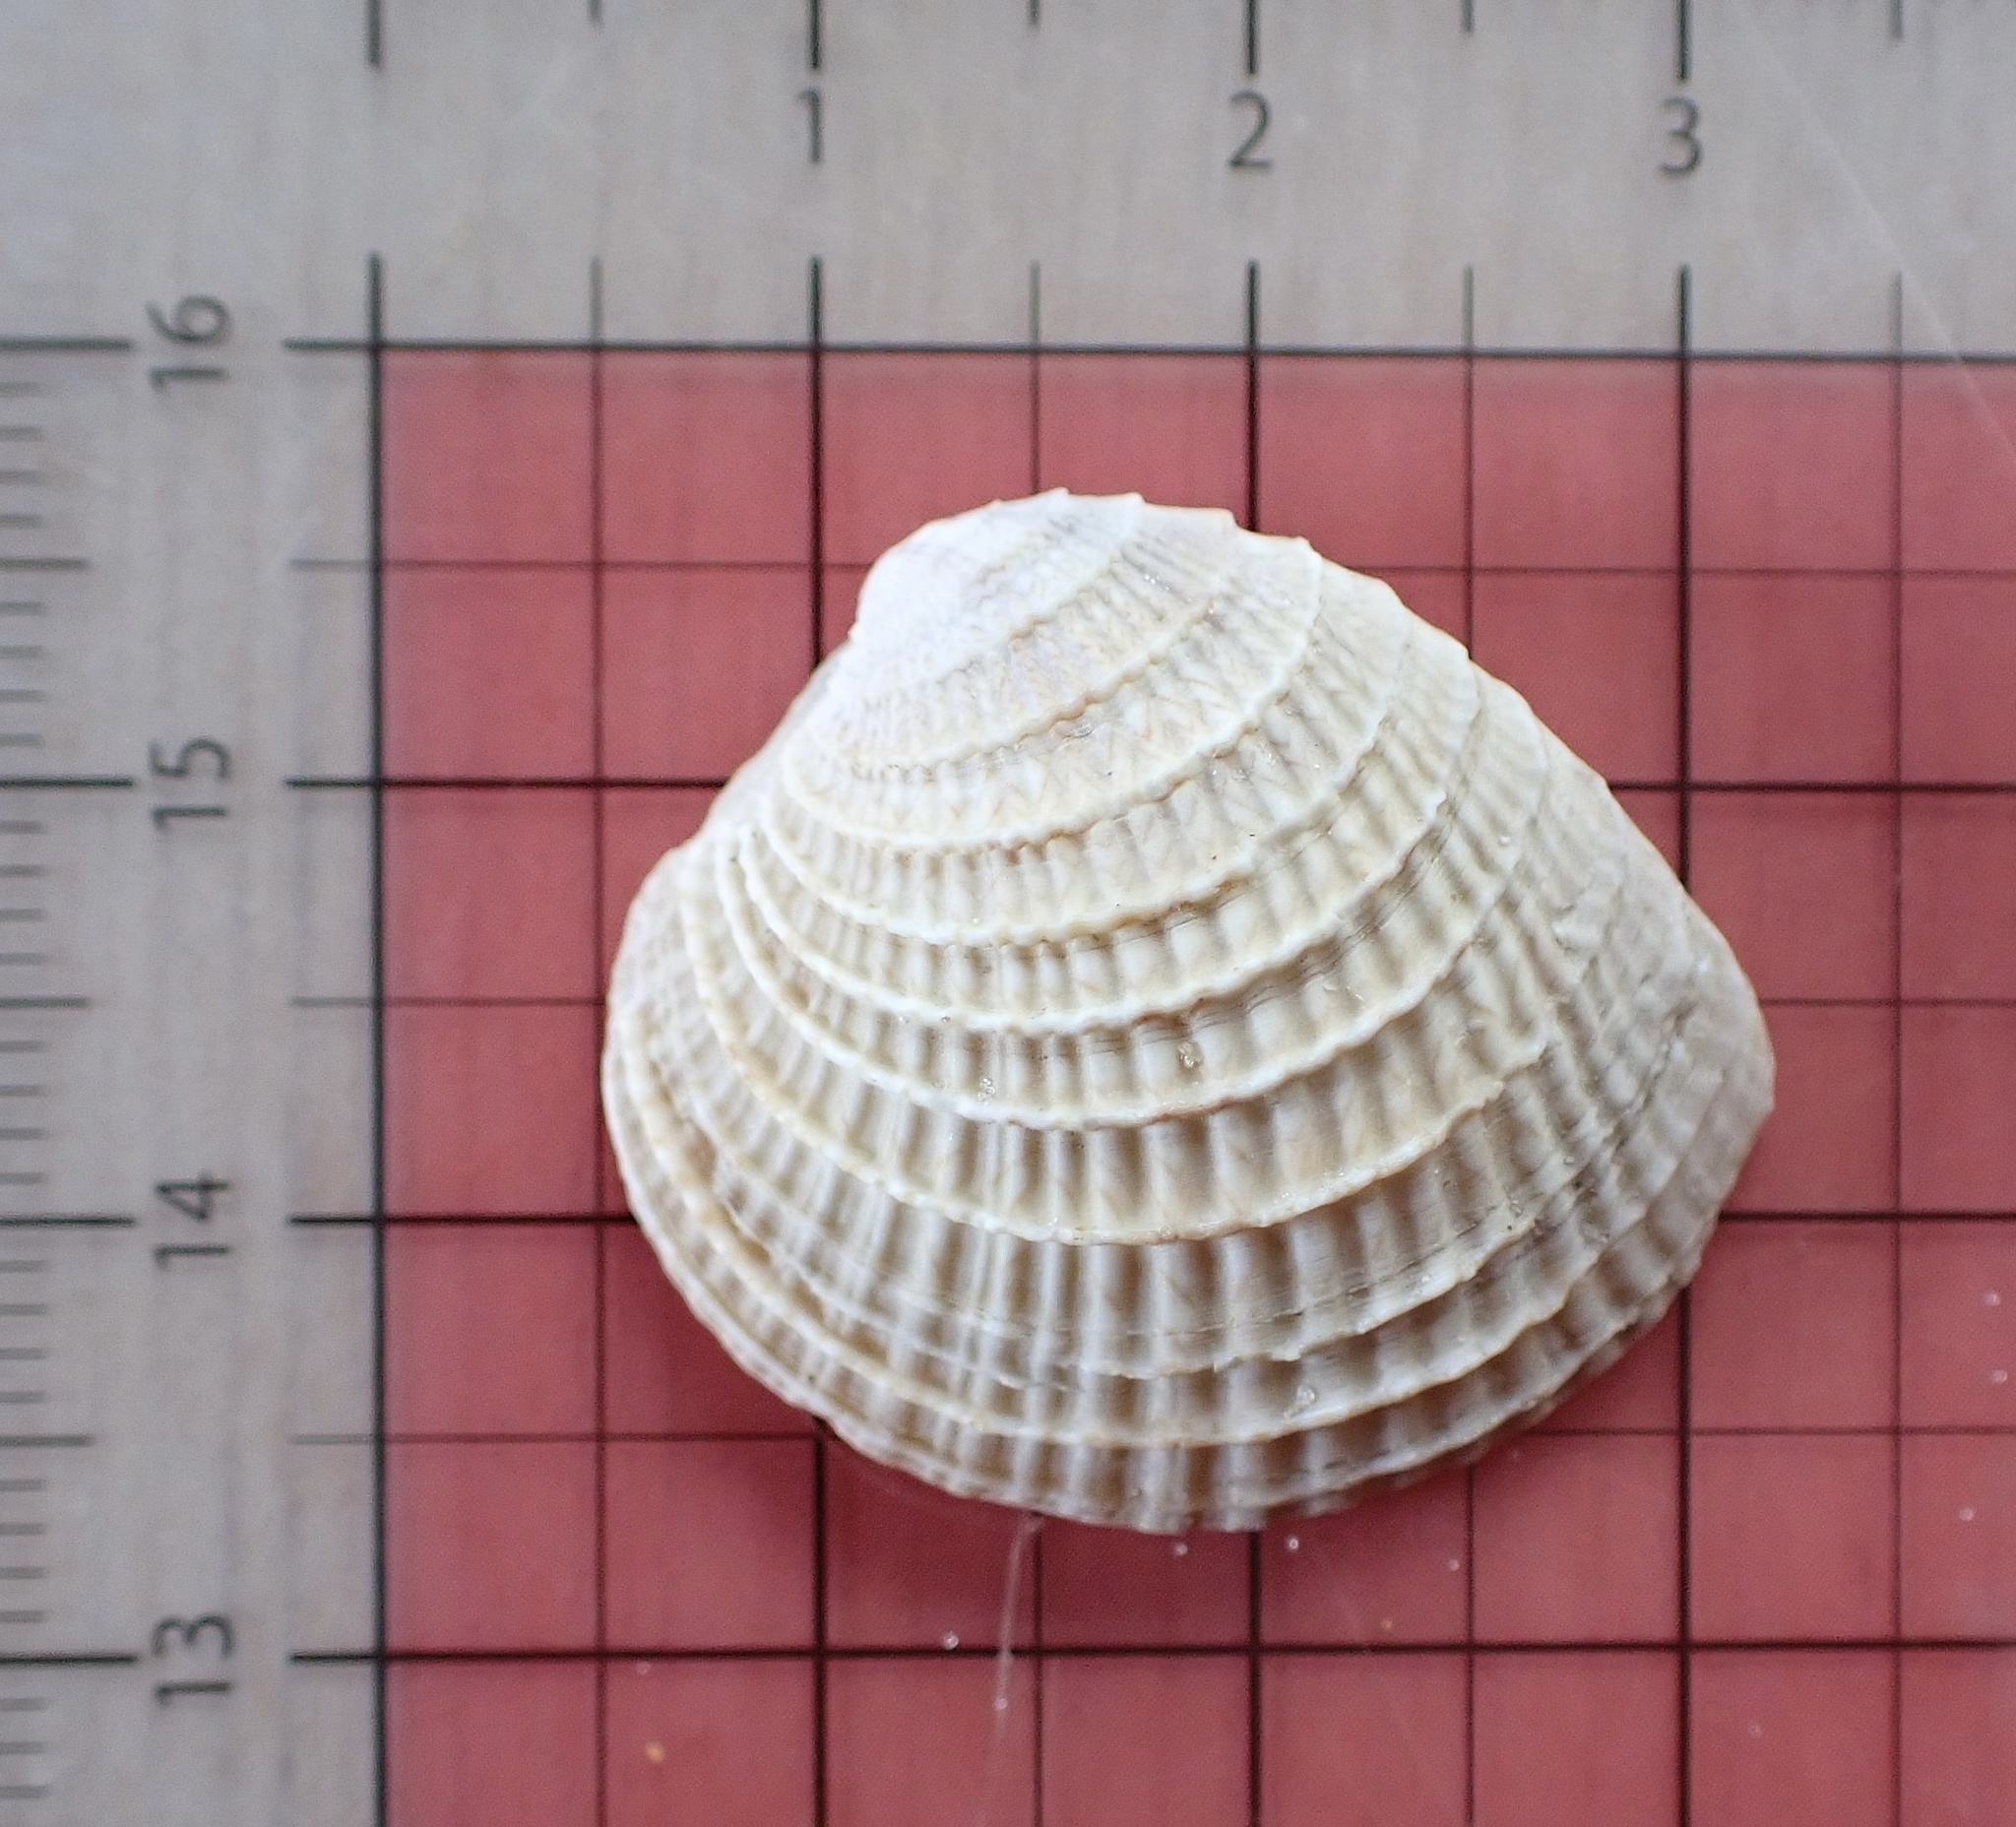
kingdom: Animalia
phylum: Mollusca
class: Bivalvia
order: Venerida
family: Veneridae
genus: Chione
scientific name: Chione elevata
